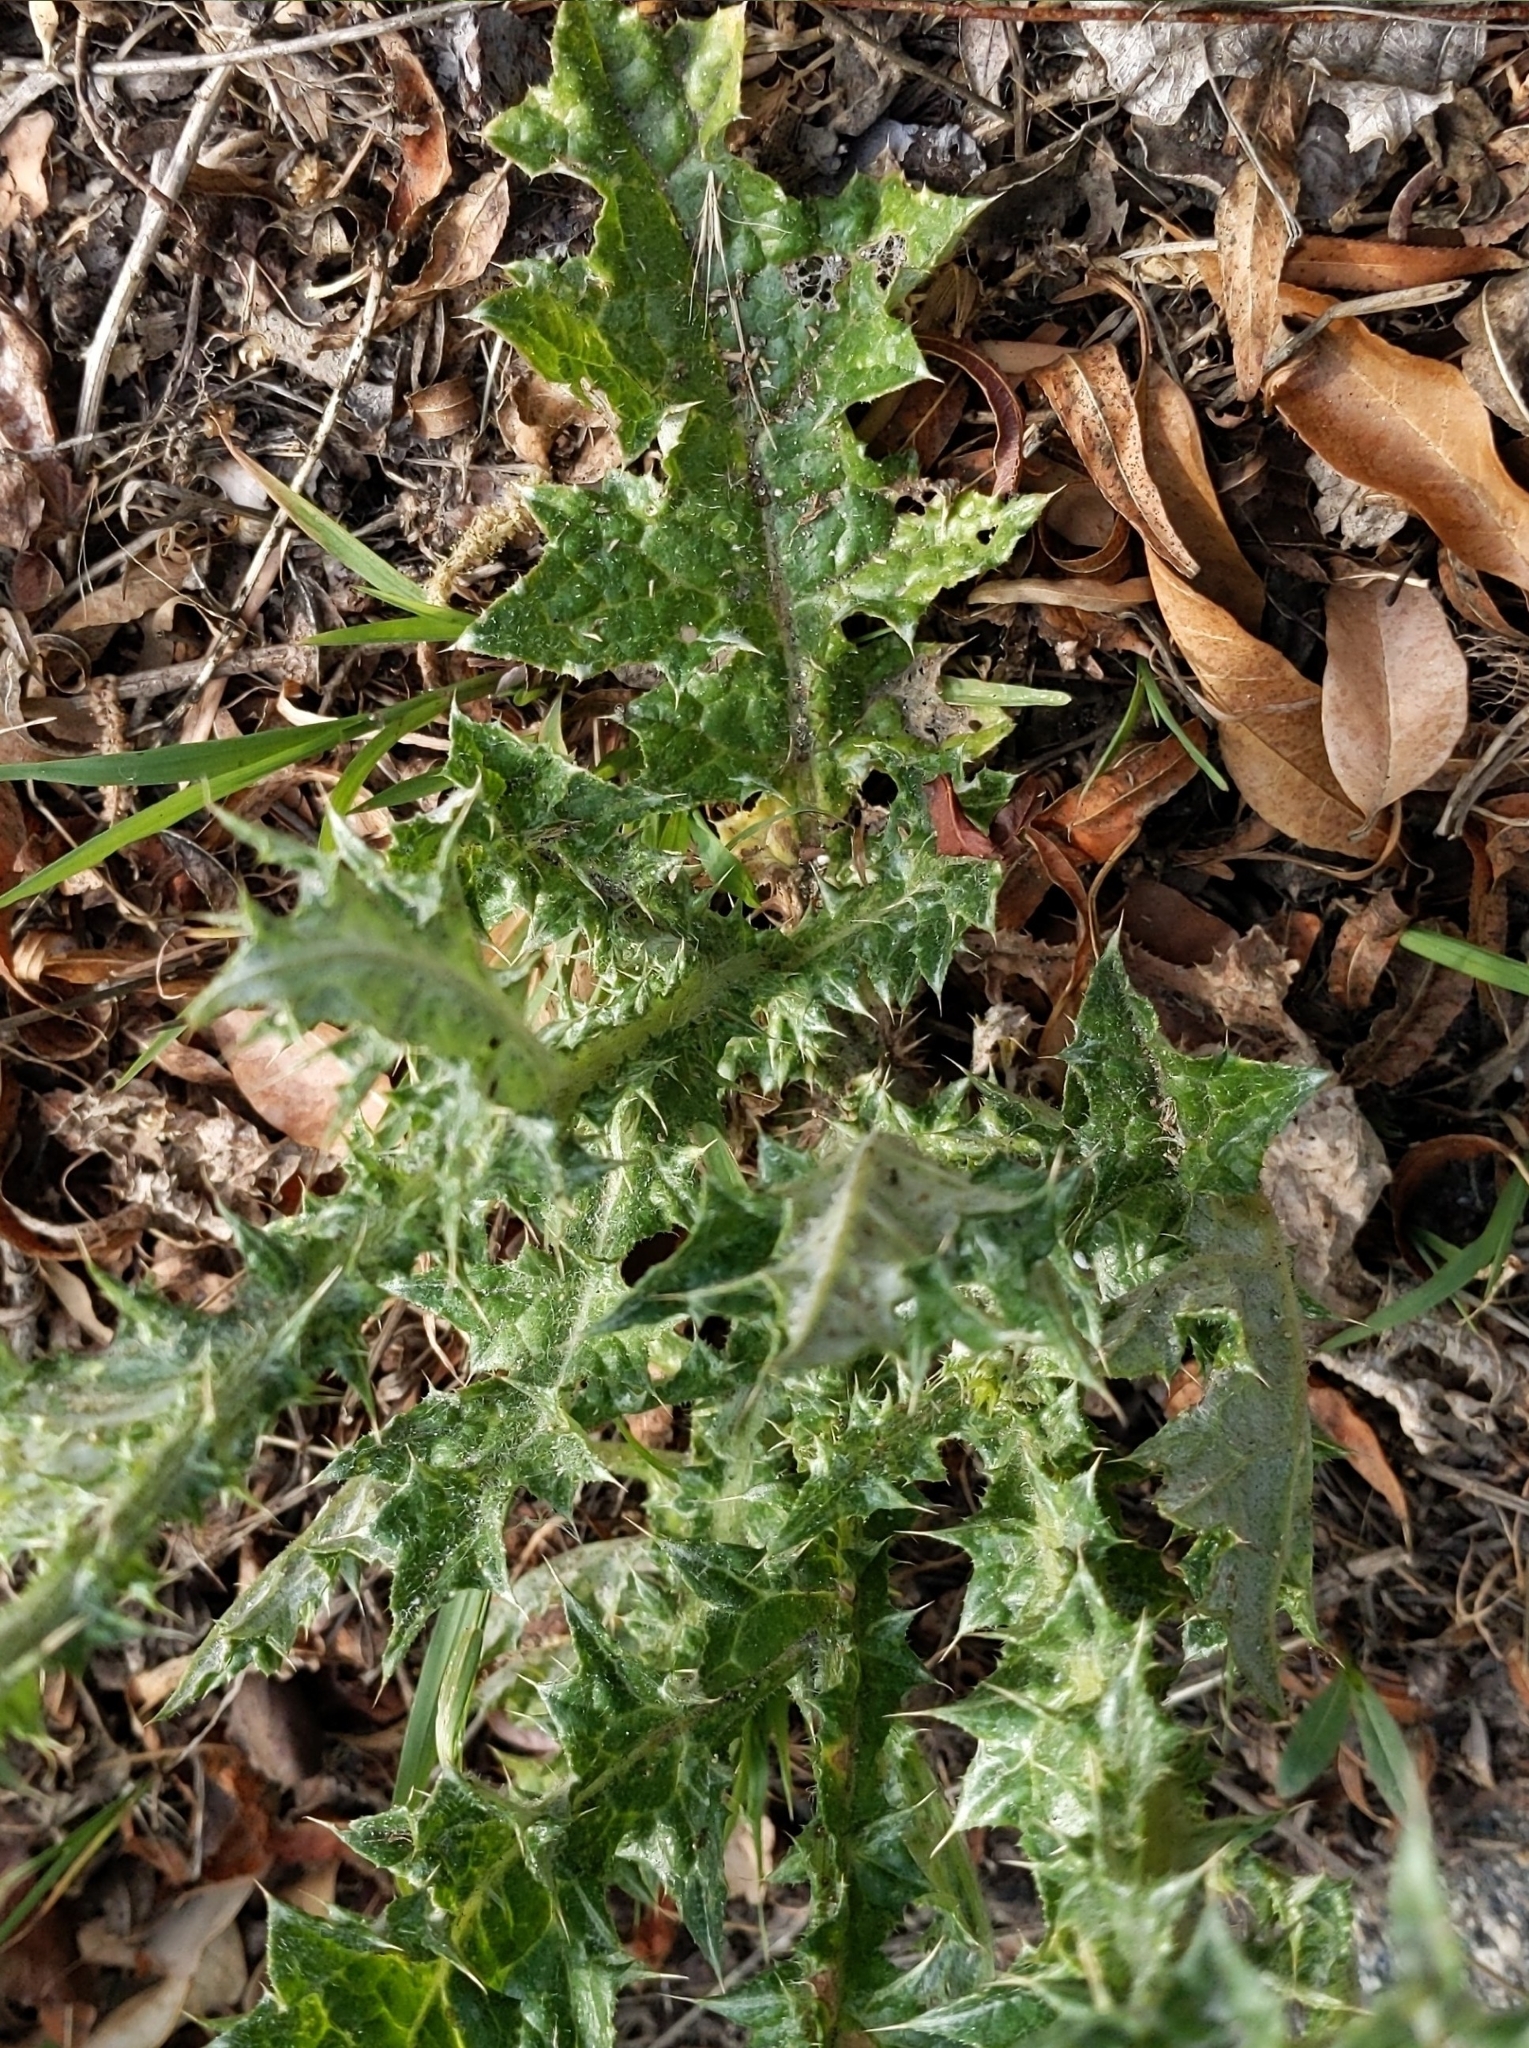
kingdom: Plantae
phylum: Tracheophyta
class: Magnoliopsida
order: Asterales
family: Asteraceae
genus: Carduus
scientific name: Carduus pycnocephalus
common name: Plymouth thistle
